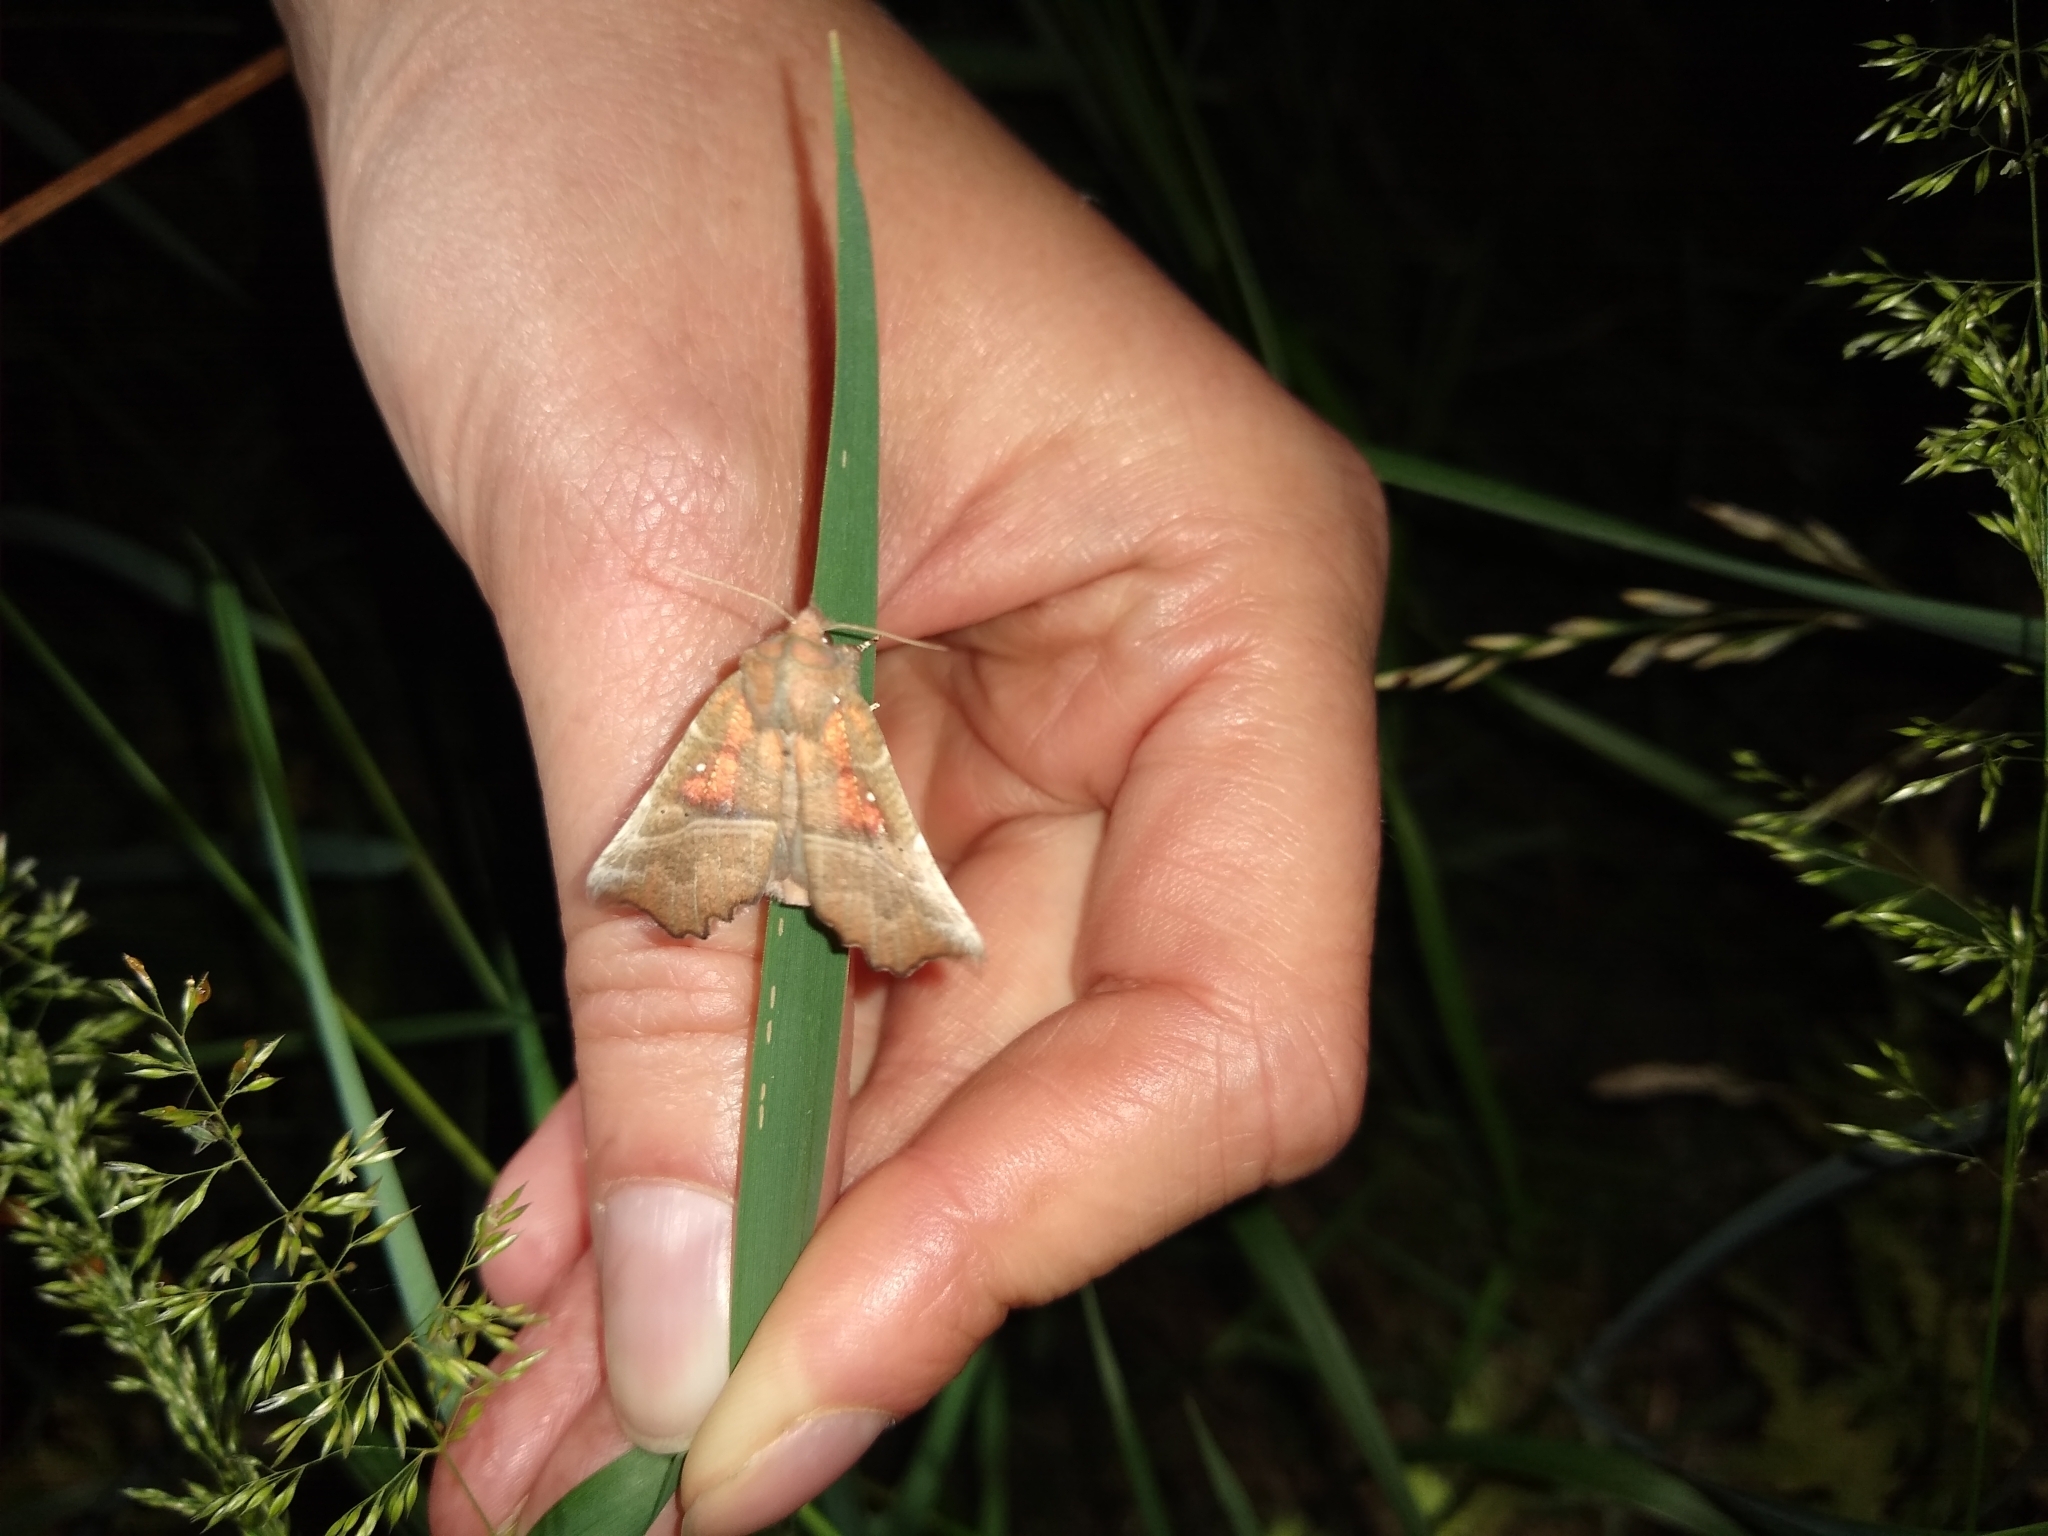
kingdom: Animalia
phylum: Arthropoda
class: Insecta
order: Lepidoptera
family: Erebidae
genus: Scoliopteryx
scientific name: Scoliopteryx libatrix
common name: Herald
